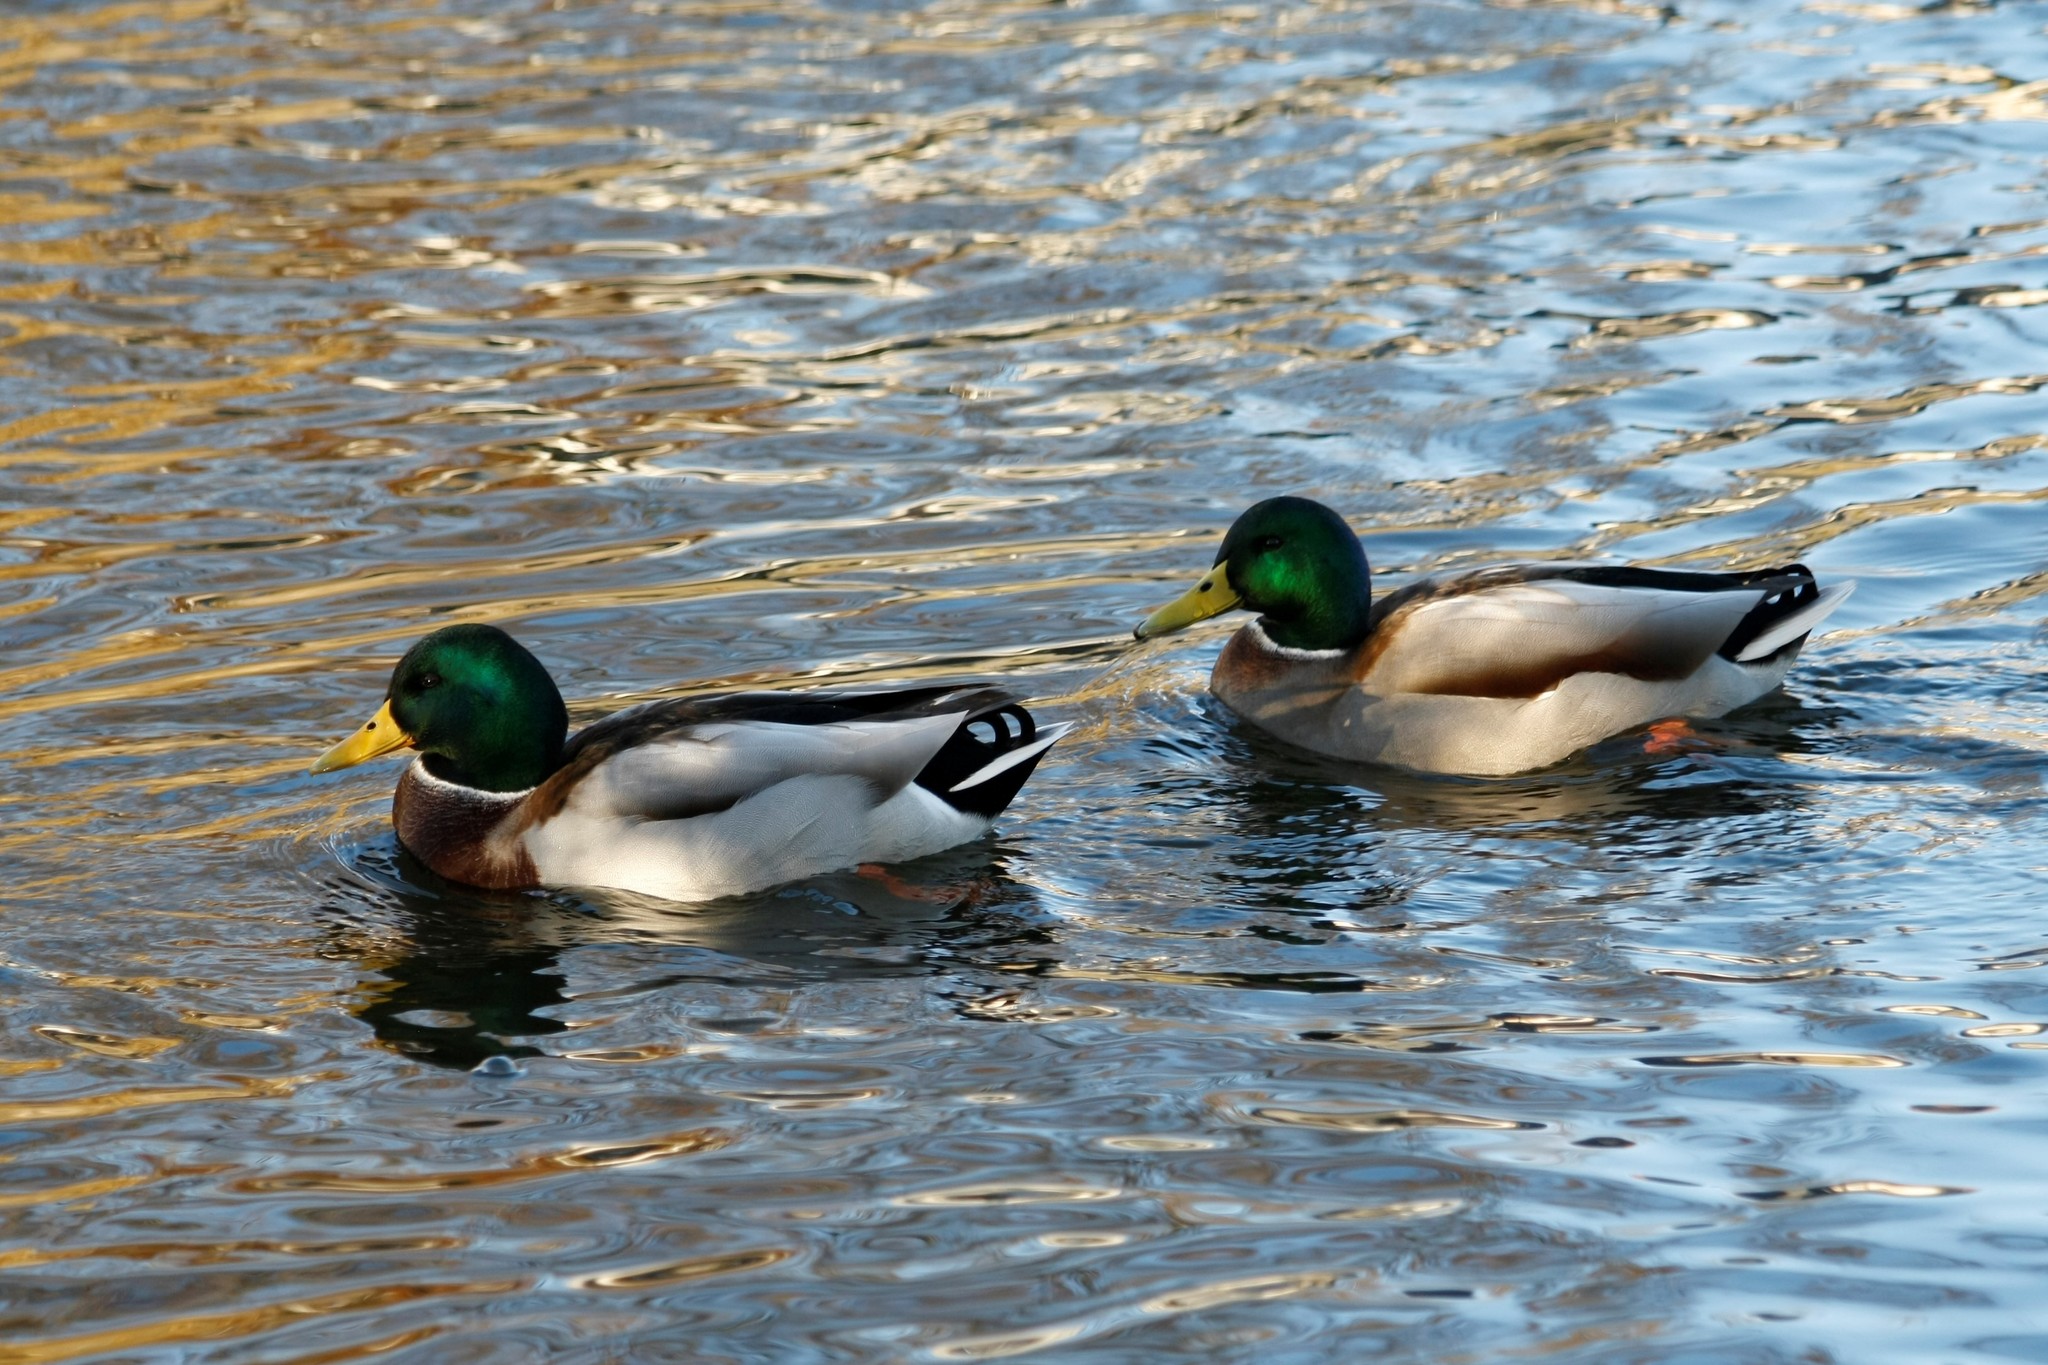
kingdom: Animalia
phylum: Chordata
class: Aves
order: Anseriformes
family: Anatidae
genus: Anas
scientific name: Anas platyrhynchos
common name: Mallard
